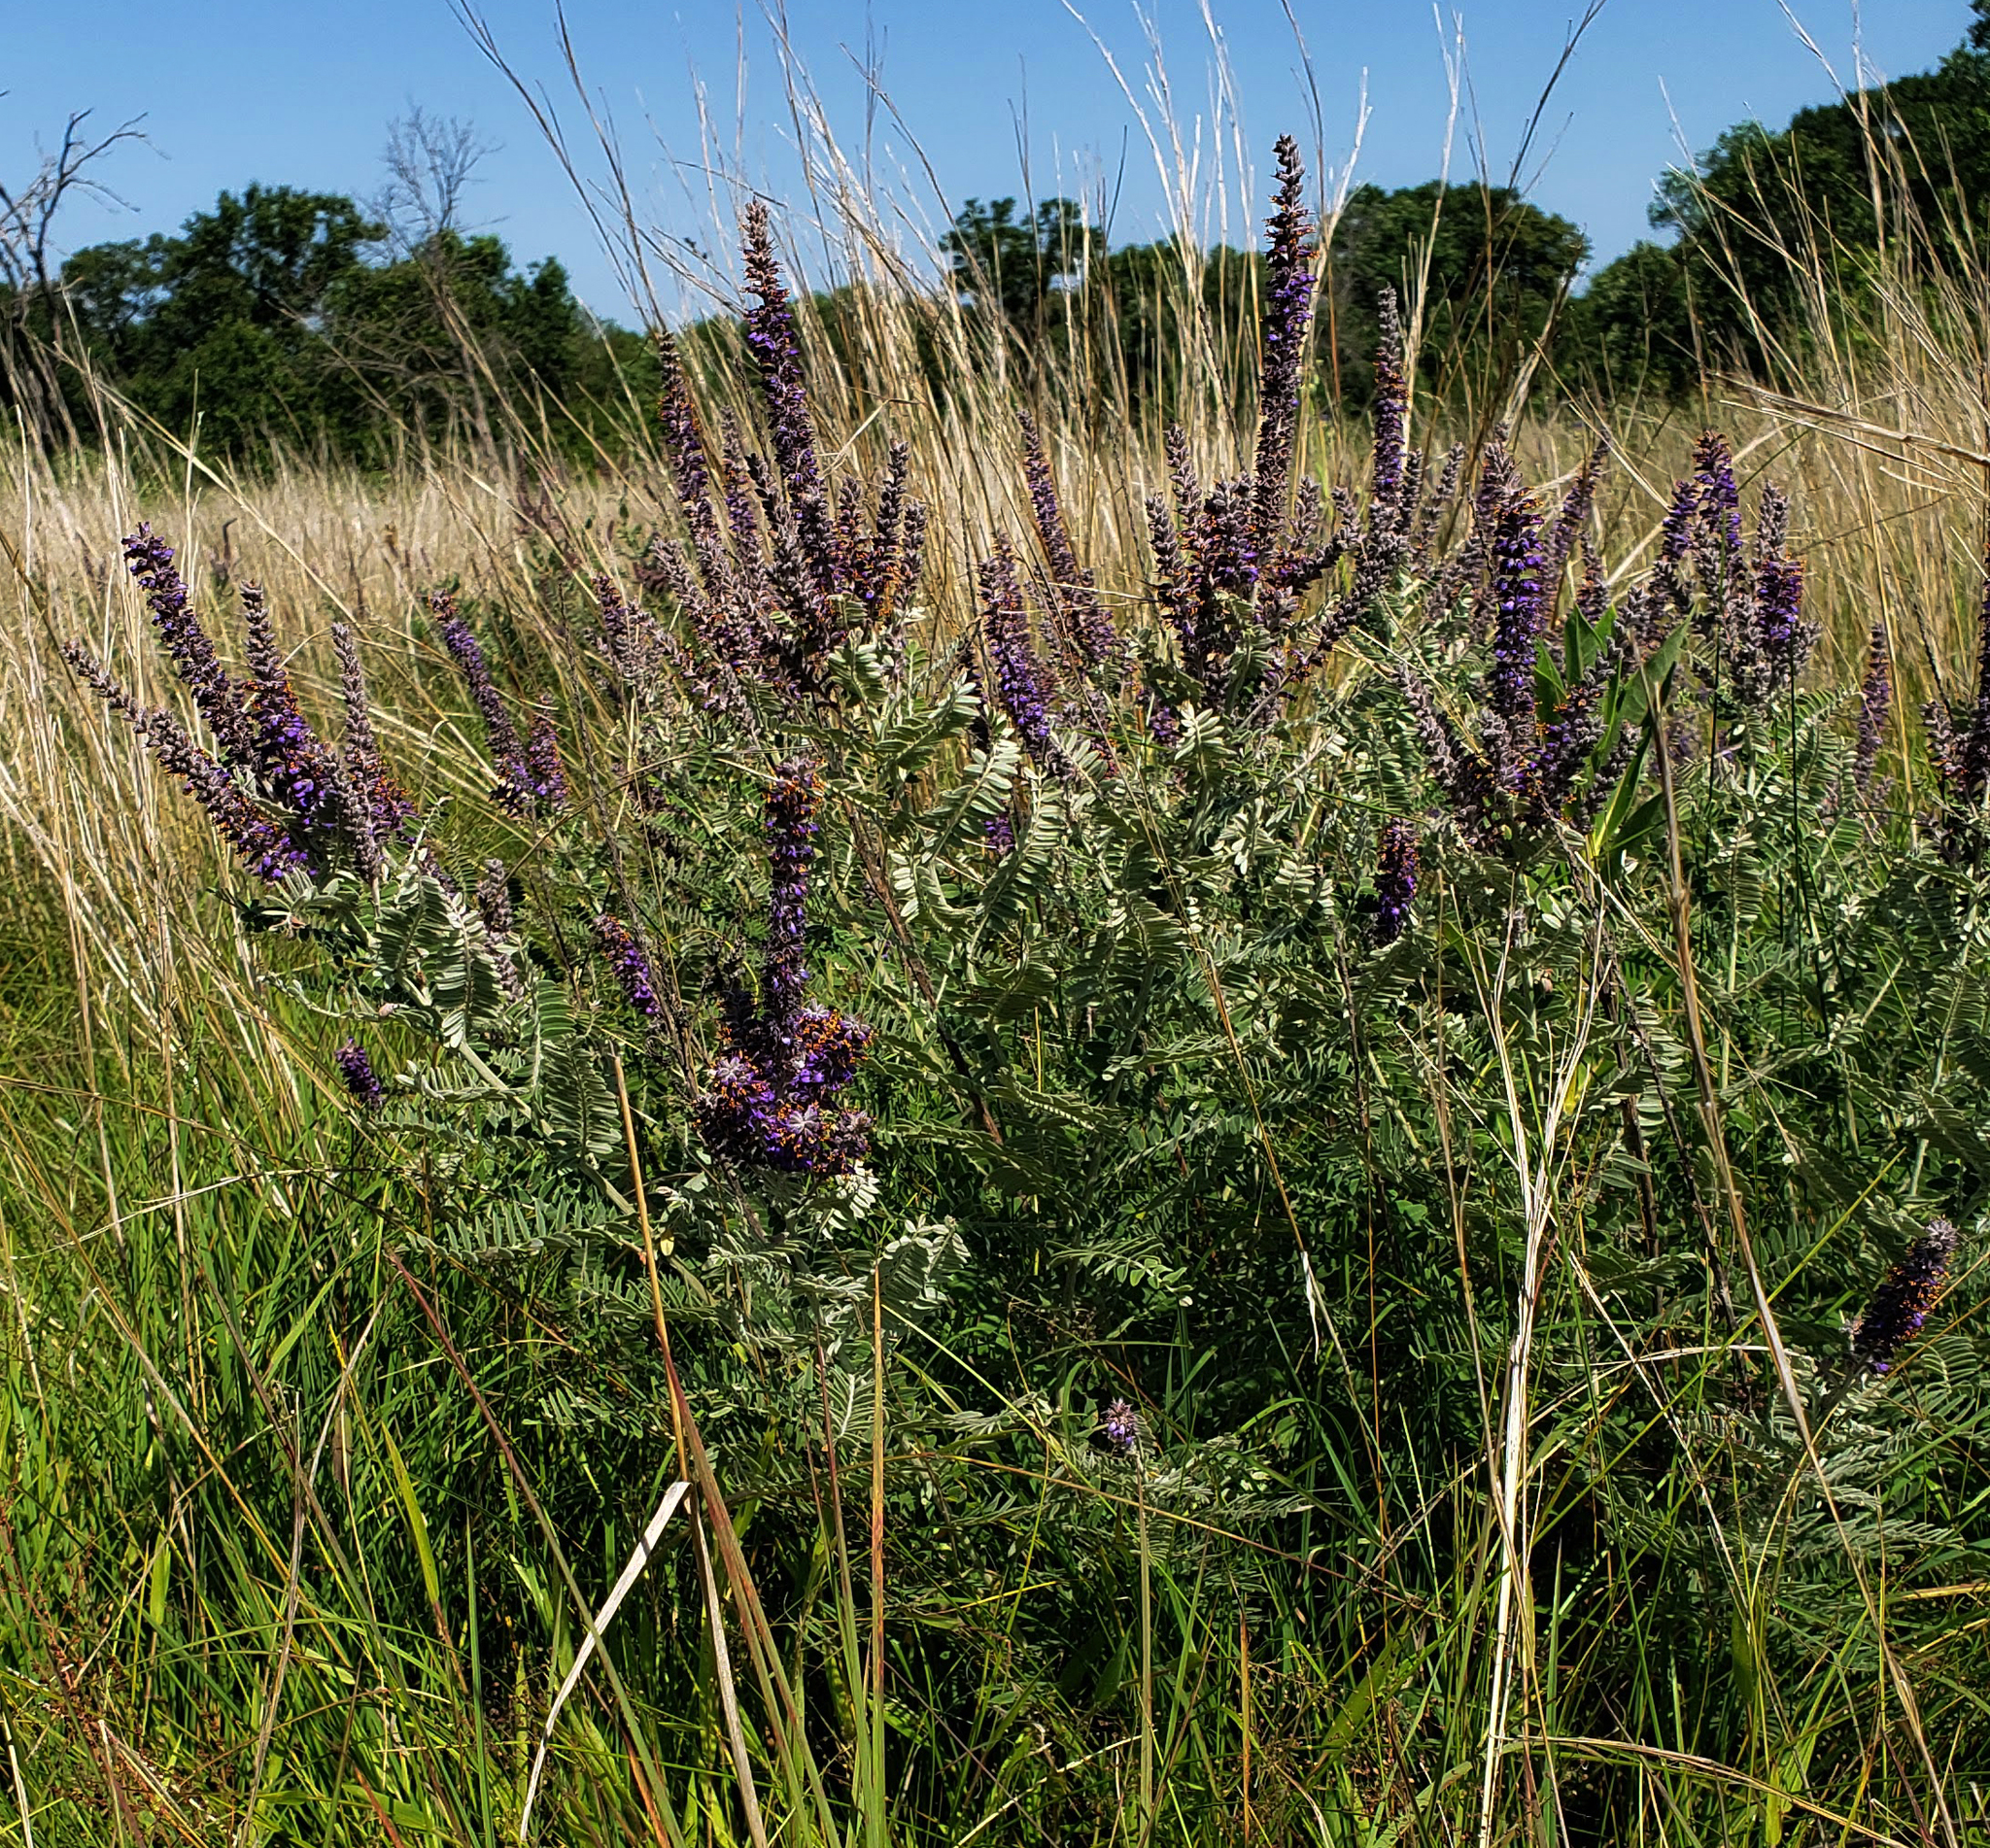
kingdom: Plantae
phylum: Tracheophyta
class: Magnoliopsida
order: Fabales
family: Fabaceae
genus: Amorpha
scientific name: Amorpha canescens
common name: Leadplant
